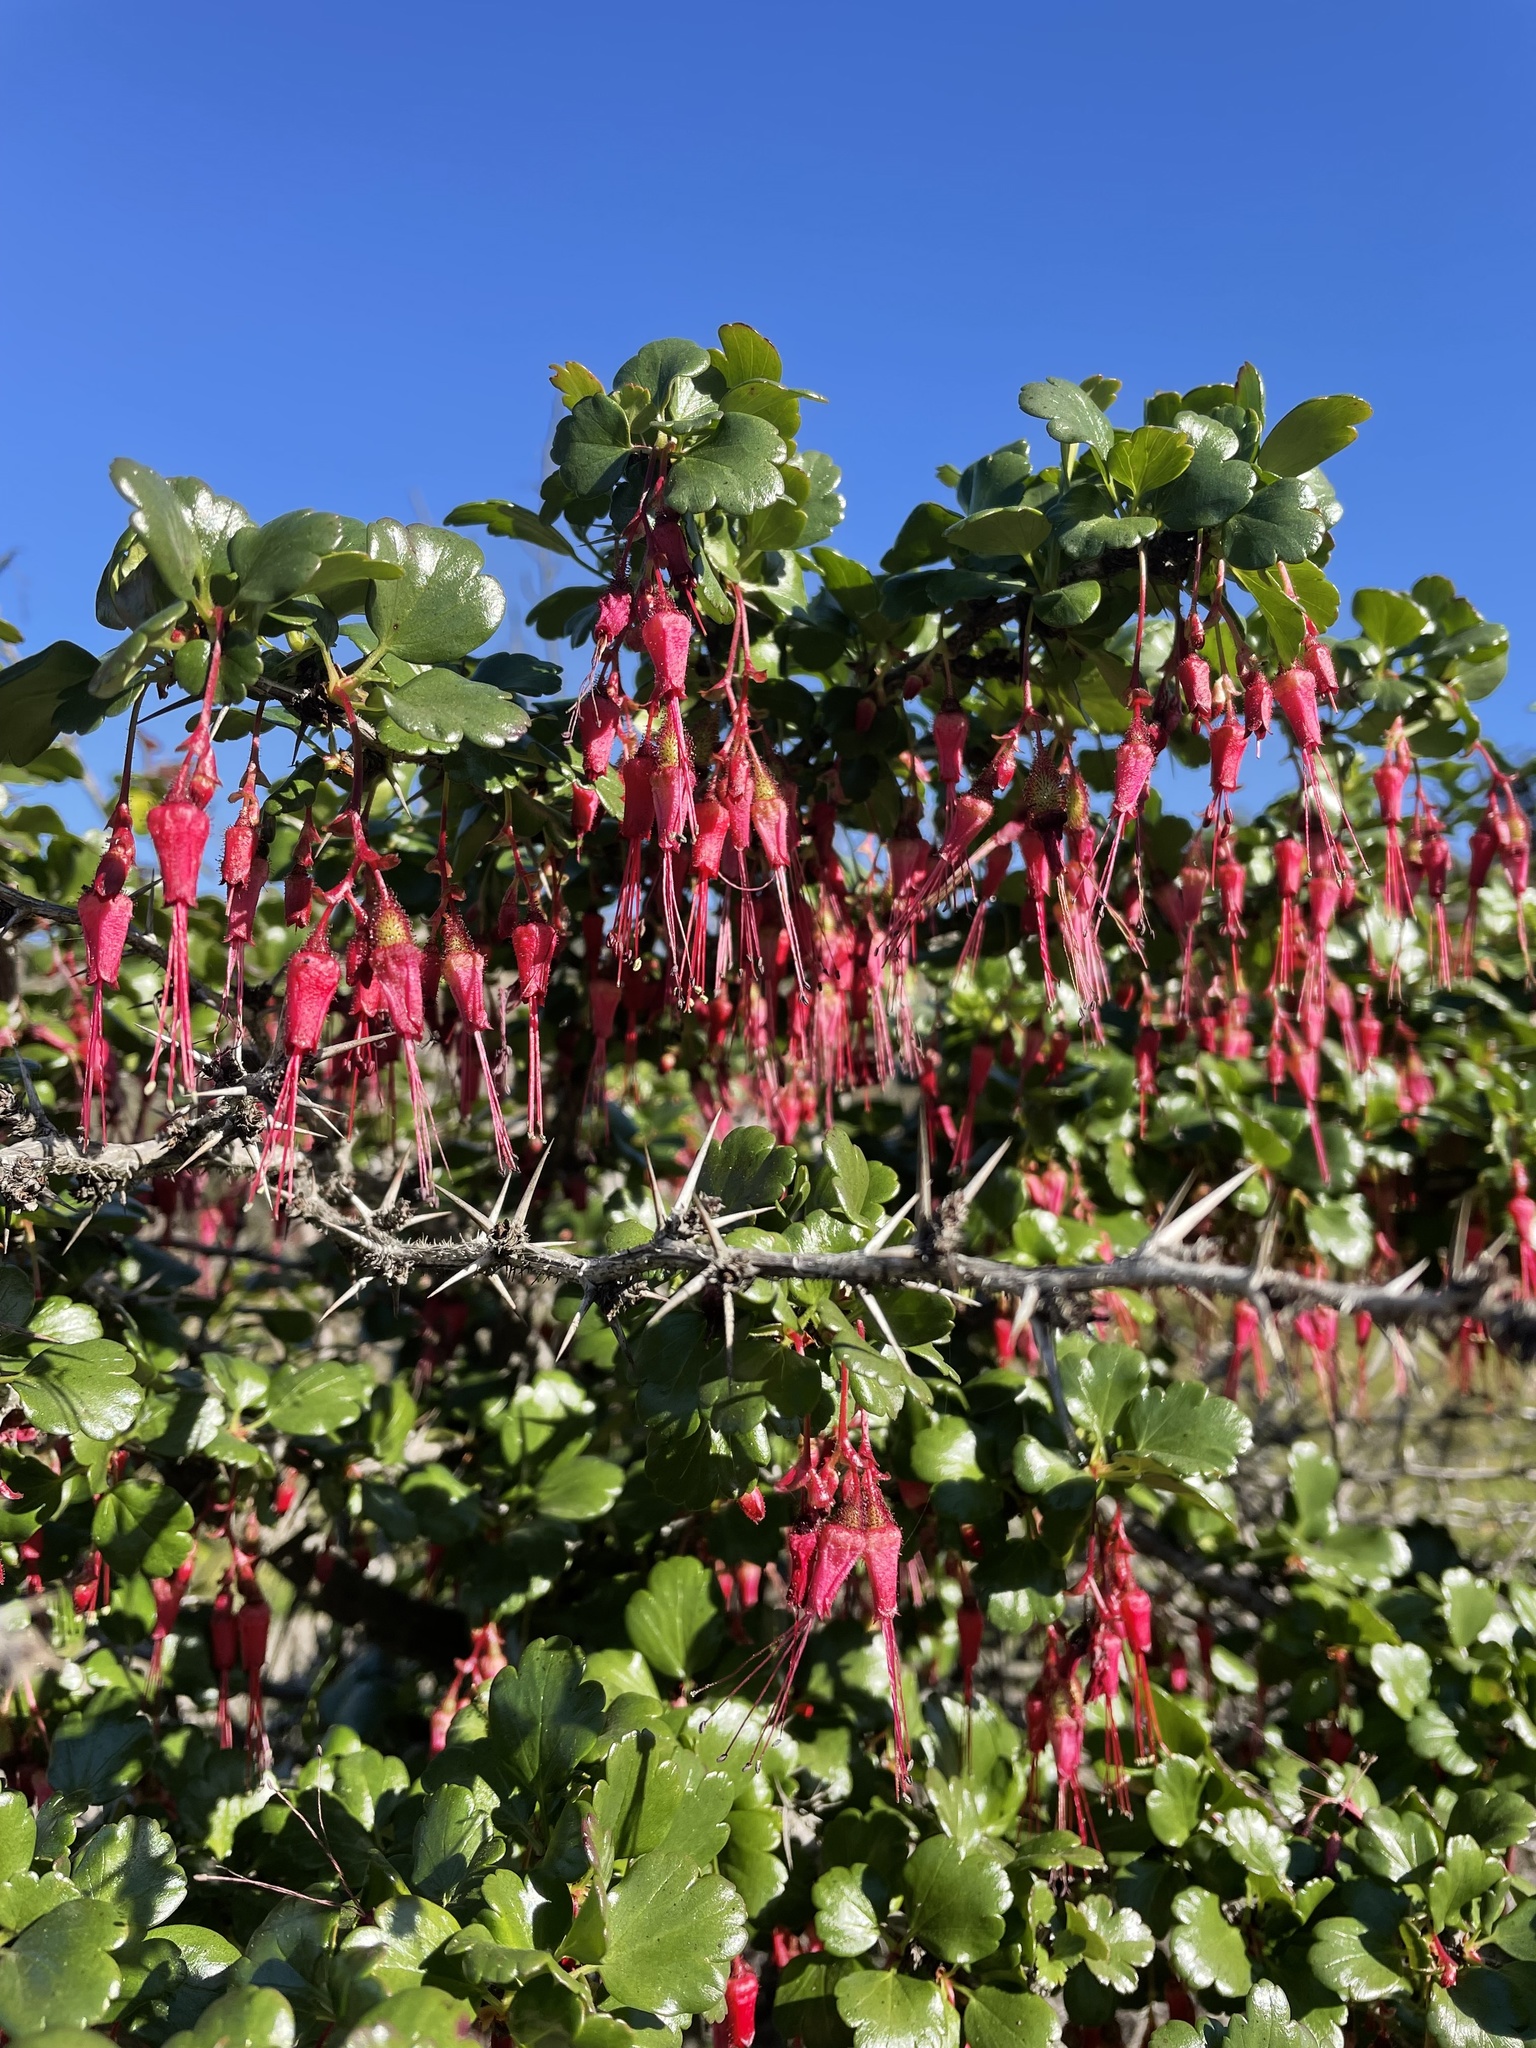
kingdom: Plantae
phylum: Tracheophyta
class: Magnoliopsida
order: Saxifragales
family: Grossulariaceae
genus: Ribes
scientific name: Ribes speciosum
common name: Fuchsia-flower gooseberry
